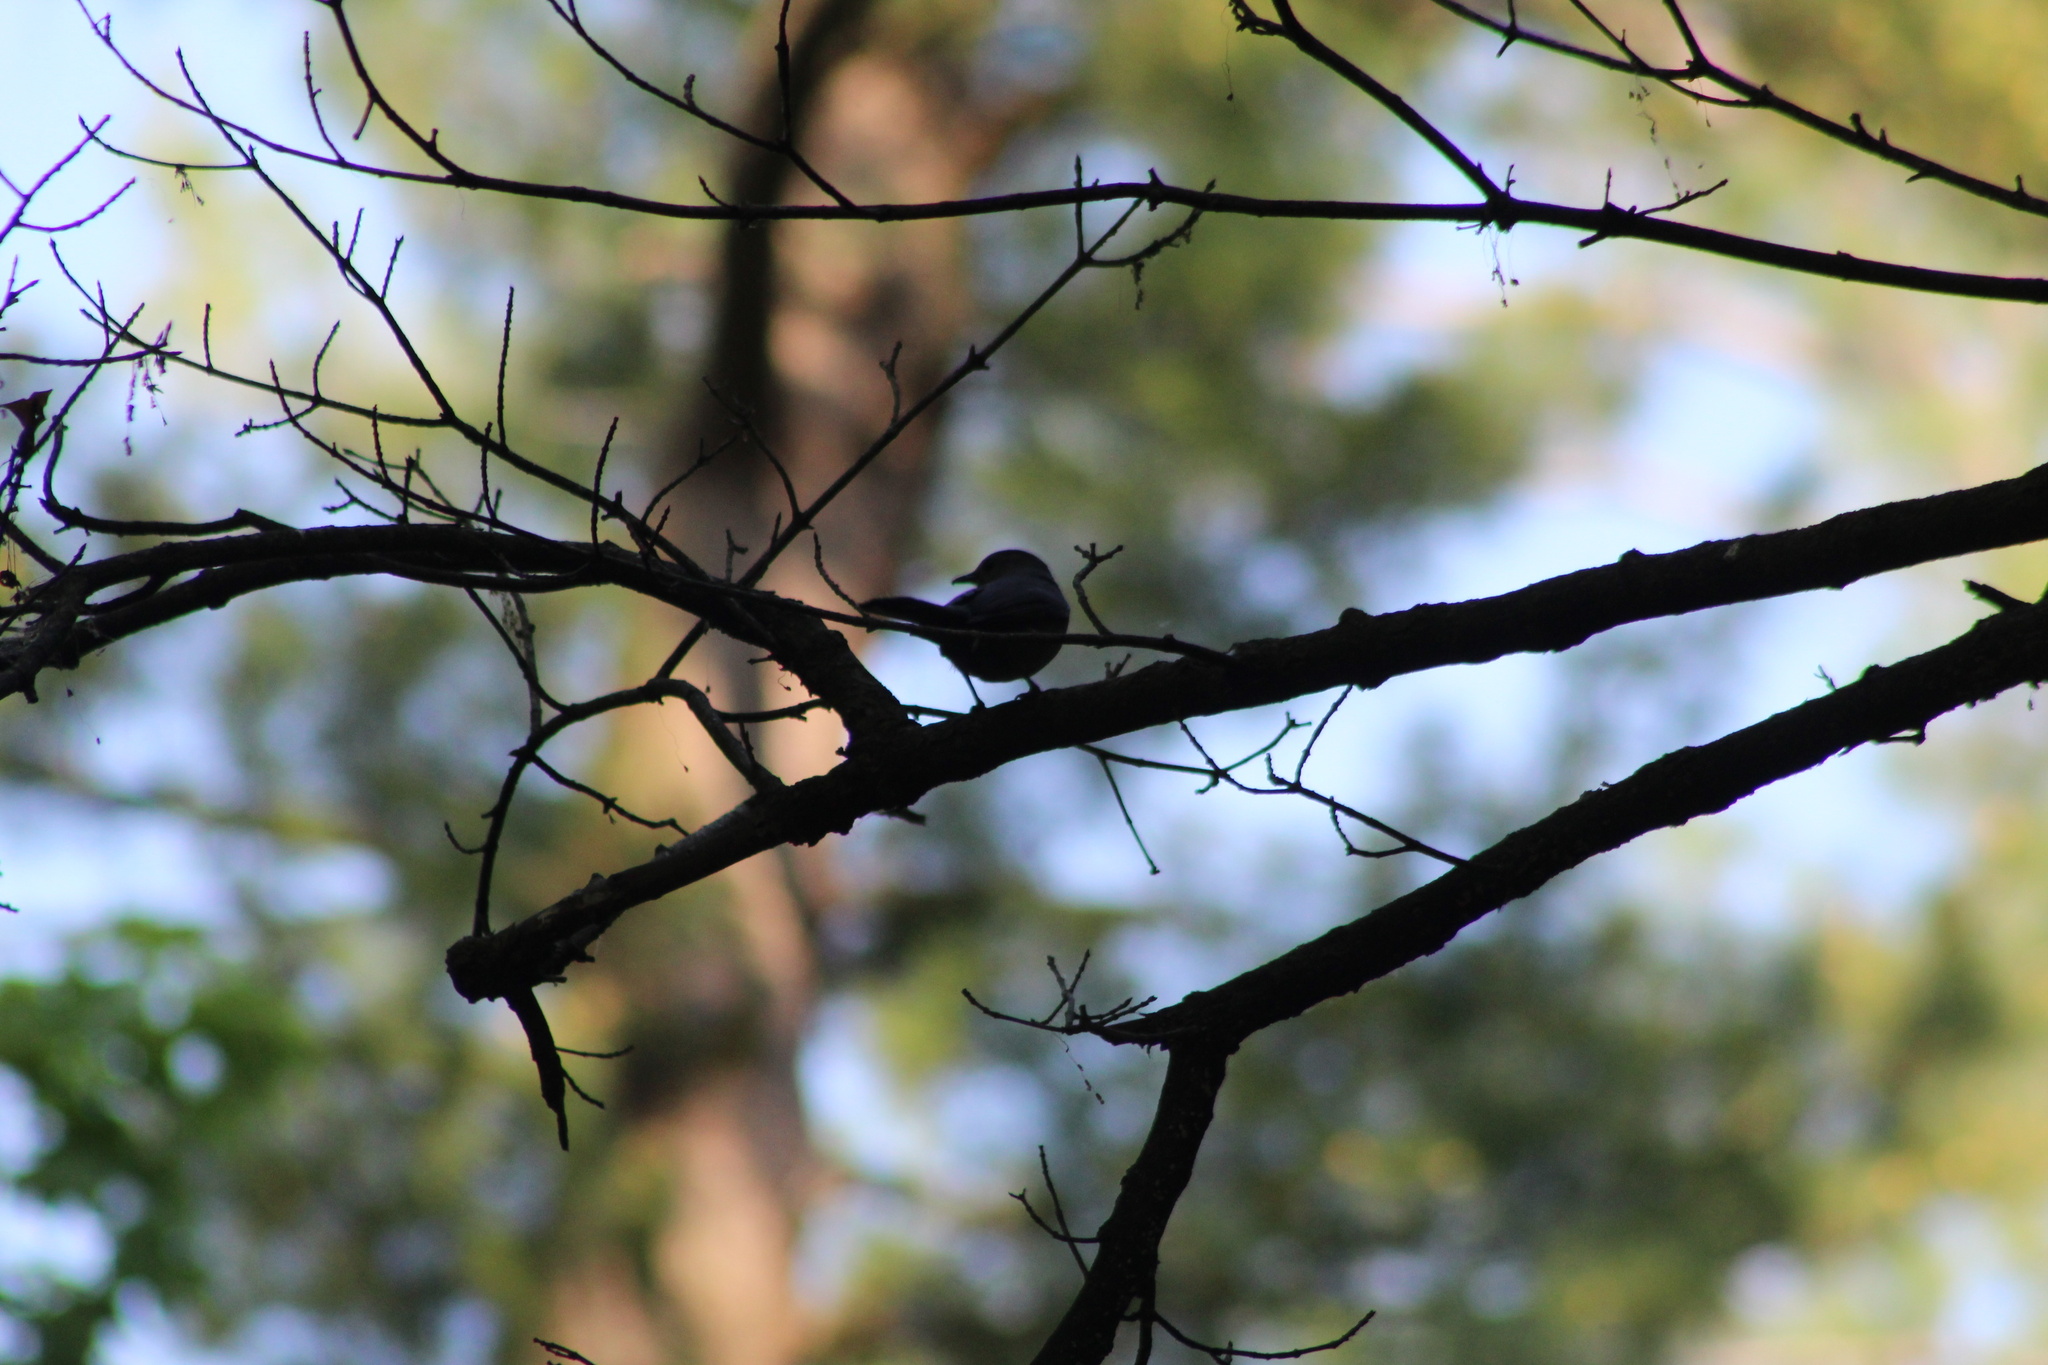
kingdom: Animalia
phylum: Chordata
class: Aves
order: Passeriformes
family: Mimidae
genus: Dumetella
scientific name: Dumetella carolinensis
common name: Gray catbird
